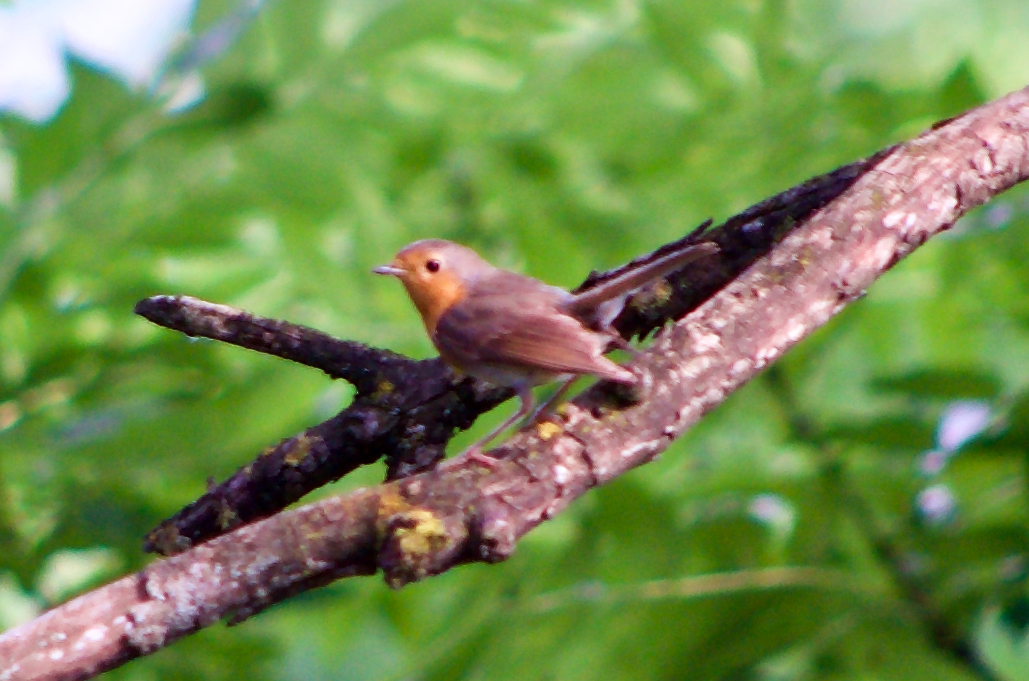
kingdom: Animalia
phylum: Chordata
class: Aves
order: Passeriformes
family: Muscicapidae
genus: Erithacus
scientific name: Erithacus rubecula
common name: European robin
